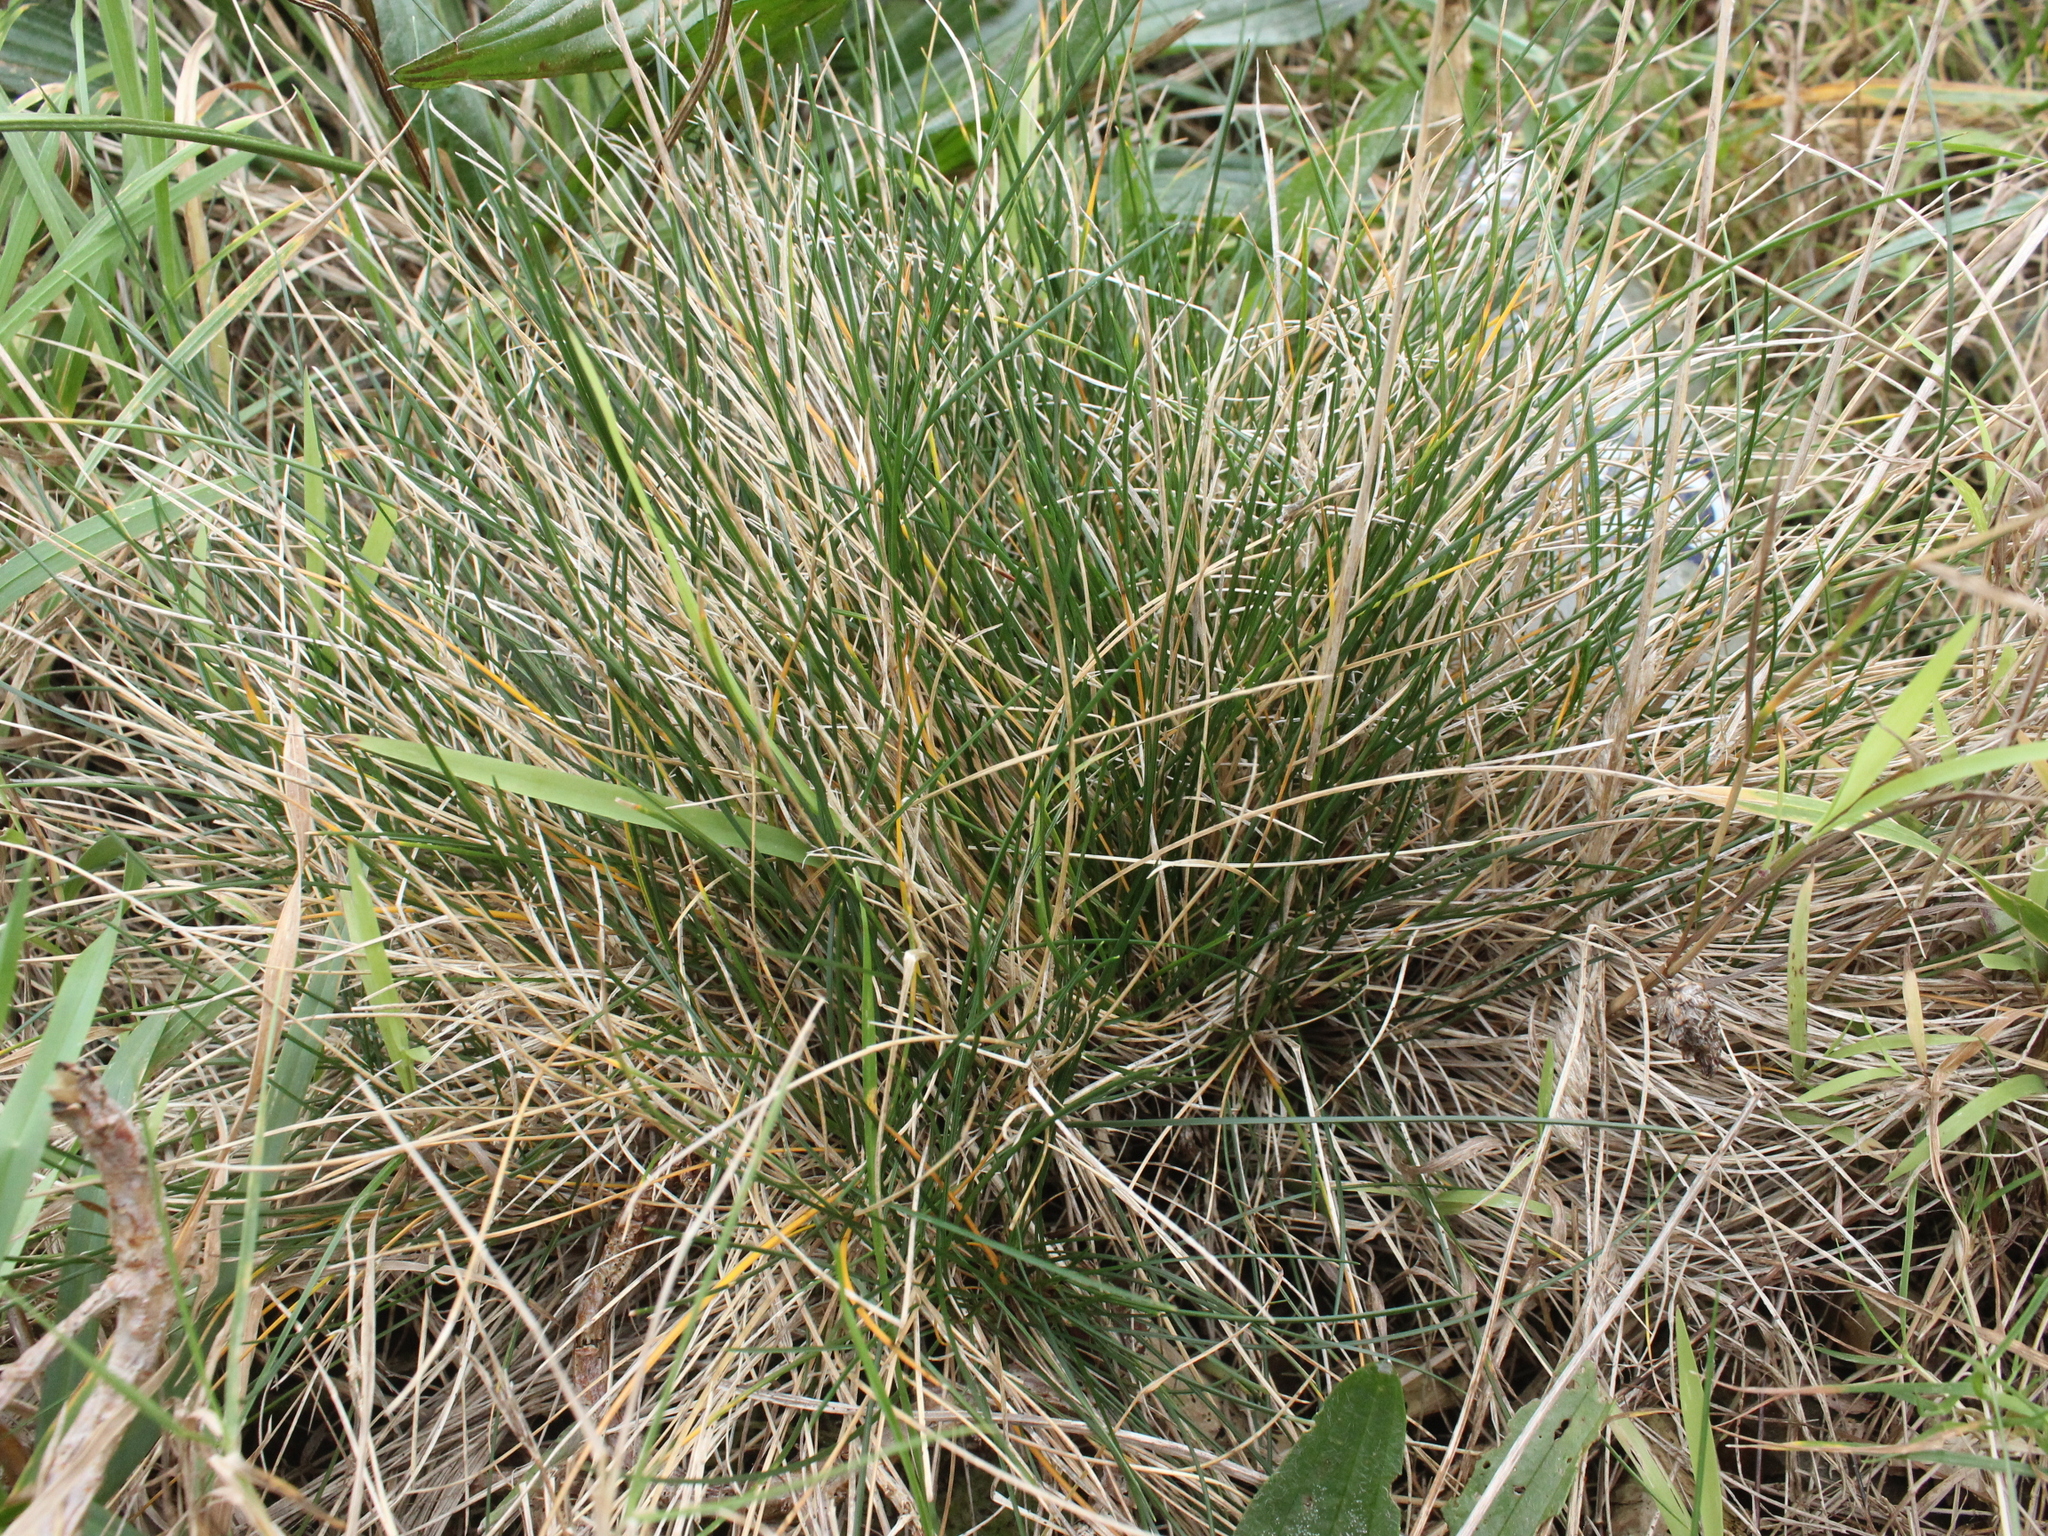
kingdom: Plantae
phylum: Tracheophyta
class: Liliopsida
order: Poales
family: Poaceae
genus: Festuca
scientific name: Festuca rubra
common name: Red fescue
